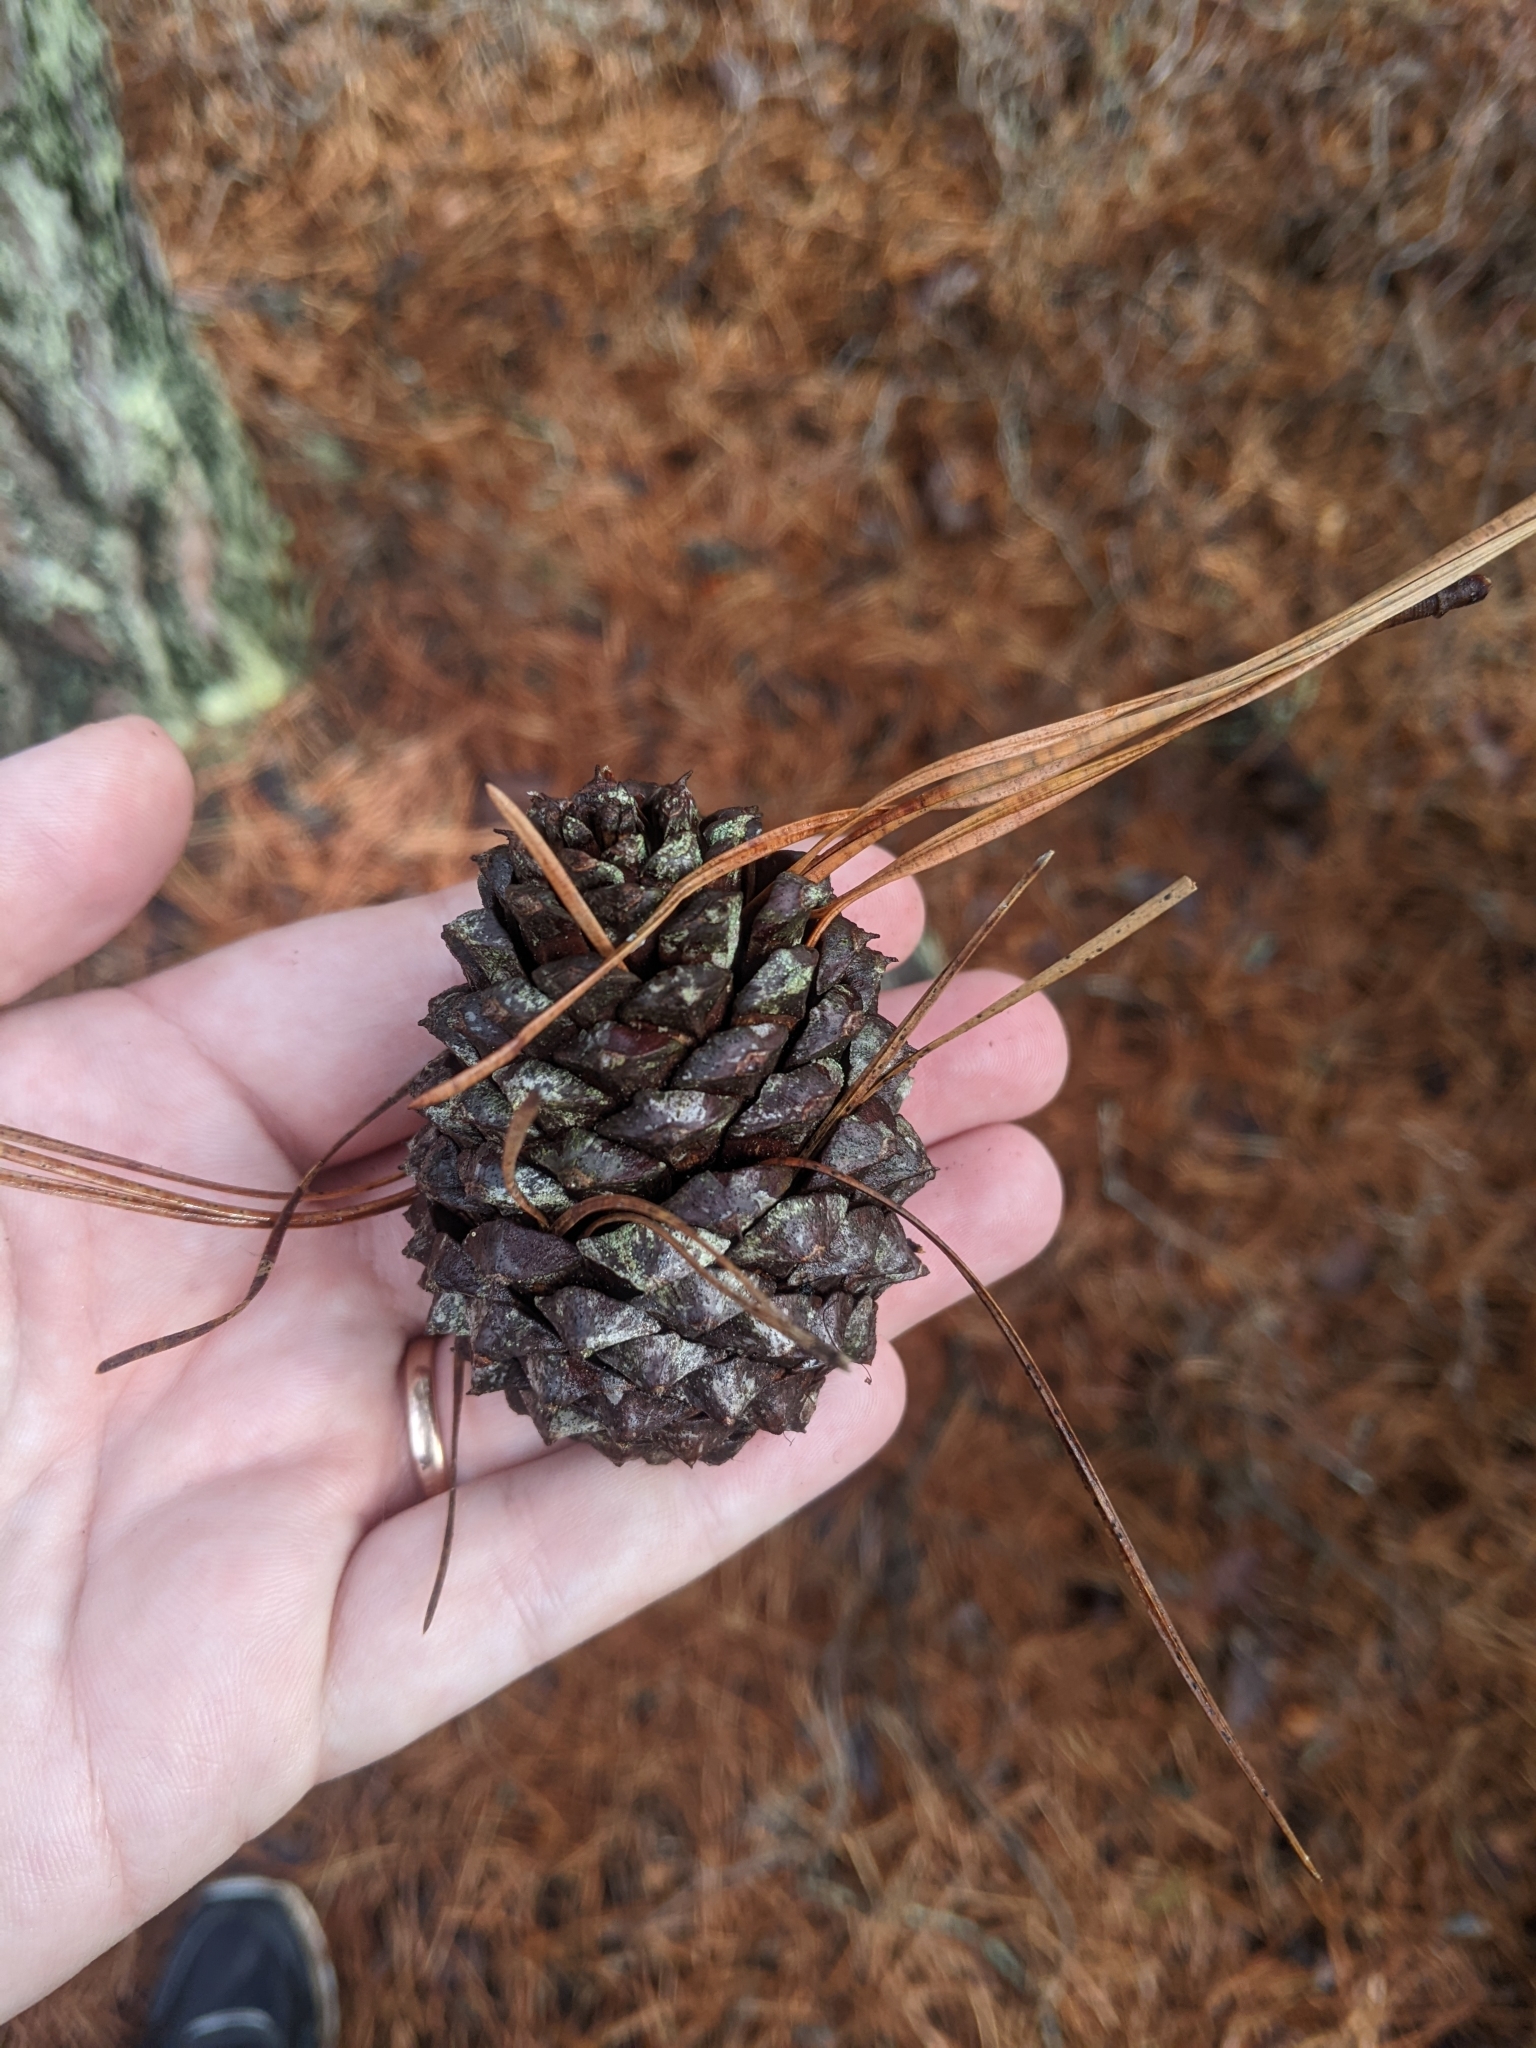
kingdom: Plantae
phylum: Tracheophyta
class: Pinopsida
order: Pinales
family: Pinaceae
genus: Pinus
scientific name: Pinus rigida
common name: Pitch pine
